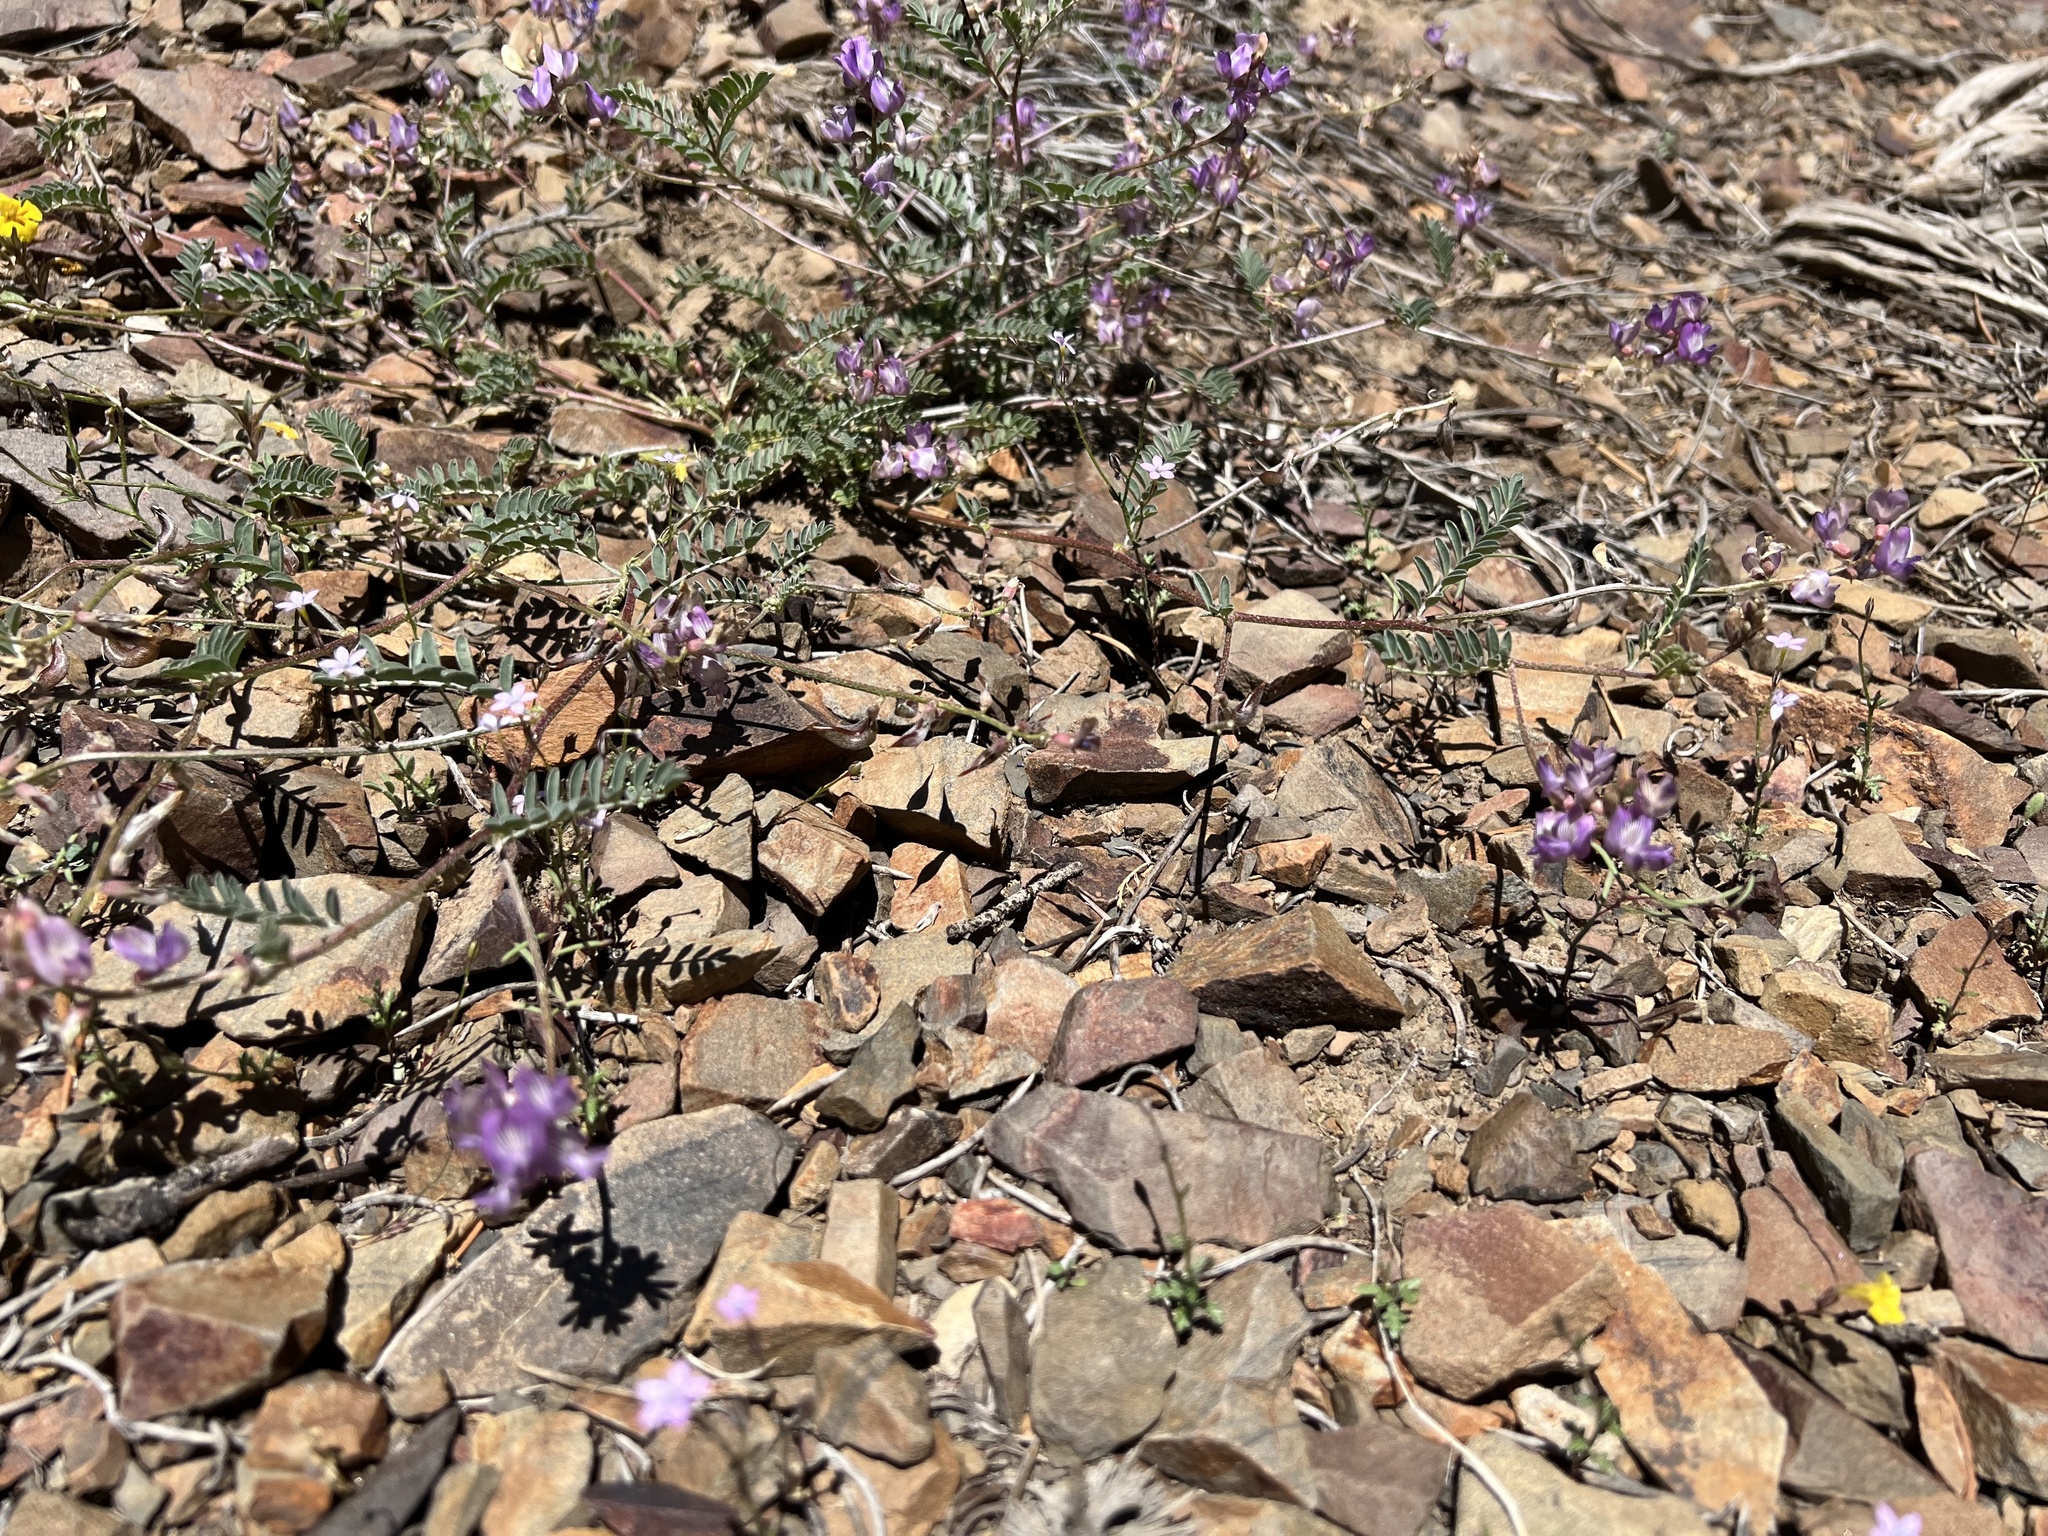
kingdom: Plantae
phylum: Tracheophyta
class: Magnoliopsida
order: Fabales
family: Fabaceae
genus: Astragalus
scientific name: Astragalus inyoensis
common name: Inyo locoweed
